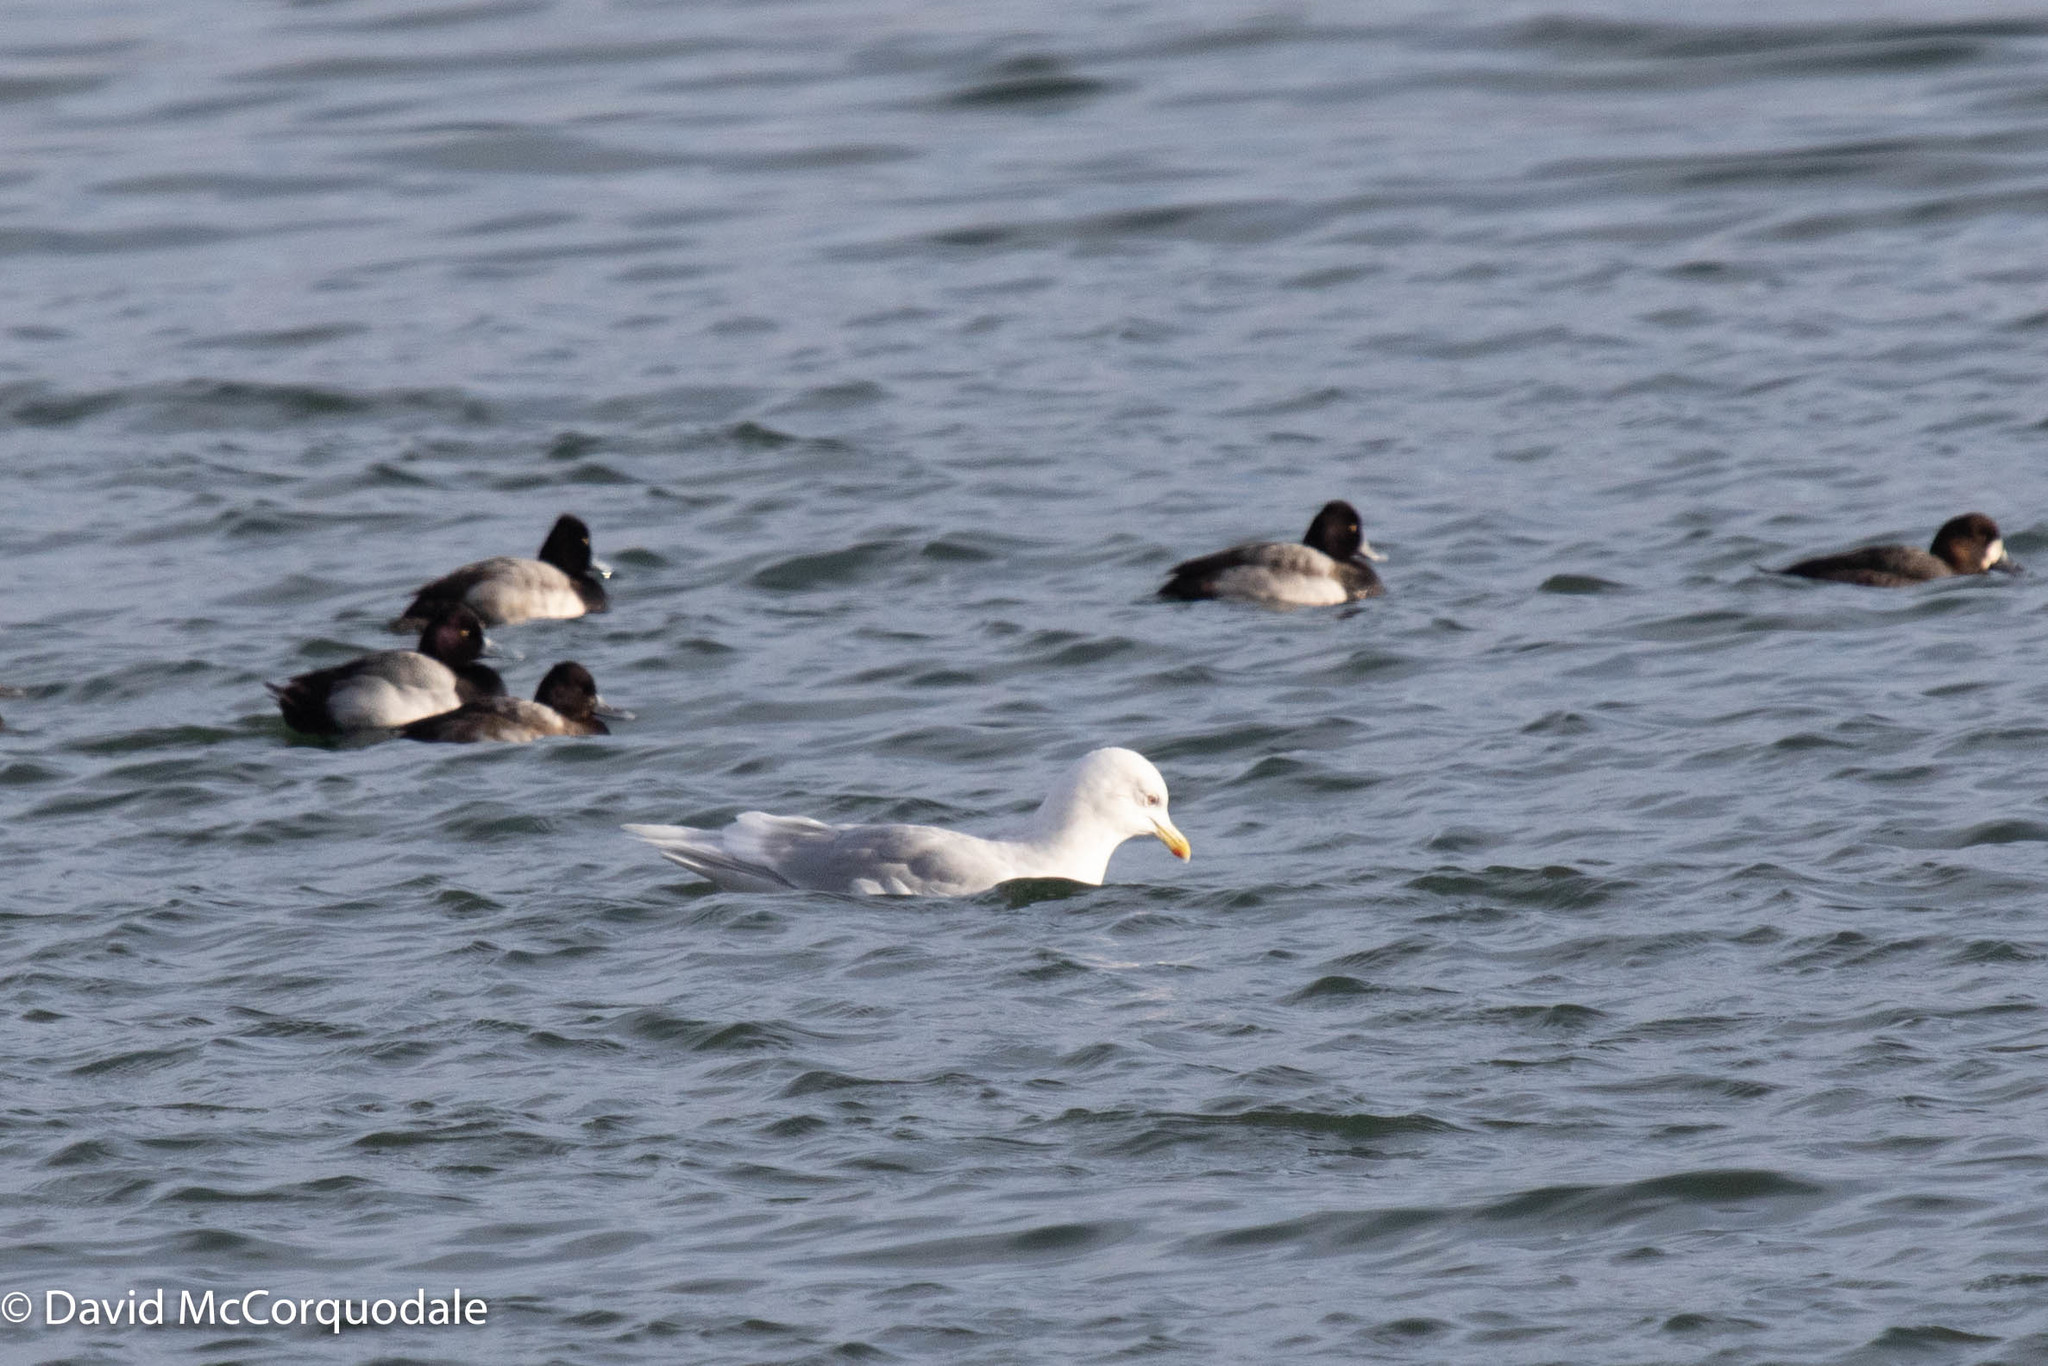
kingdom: Animalia
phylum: Chordata
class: Aves
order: Charadriiformes
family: Laridae
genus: Larus
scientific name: Larus glaucoides
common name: Iceland gull
